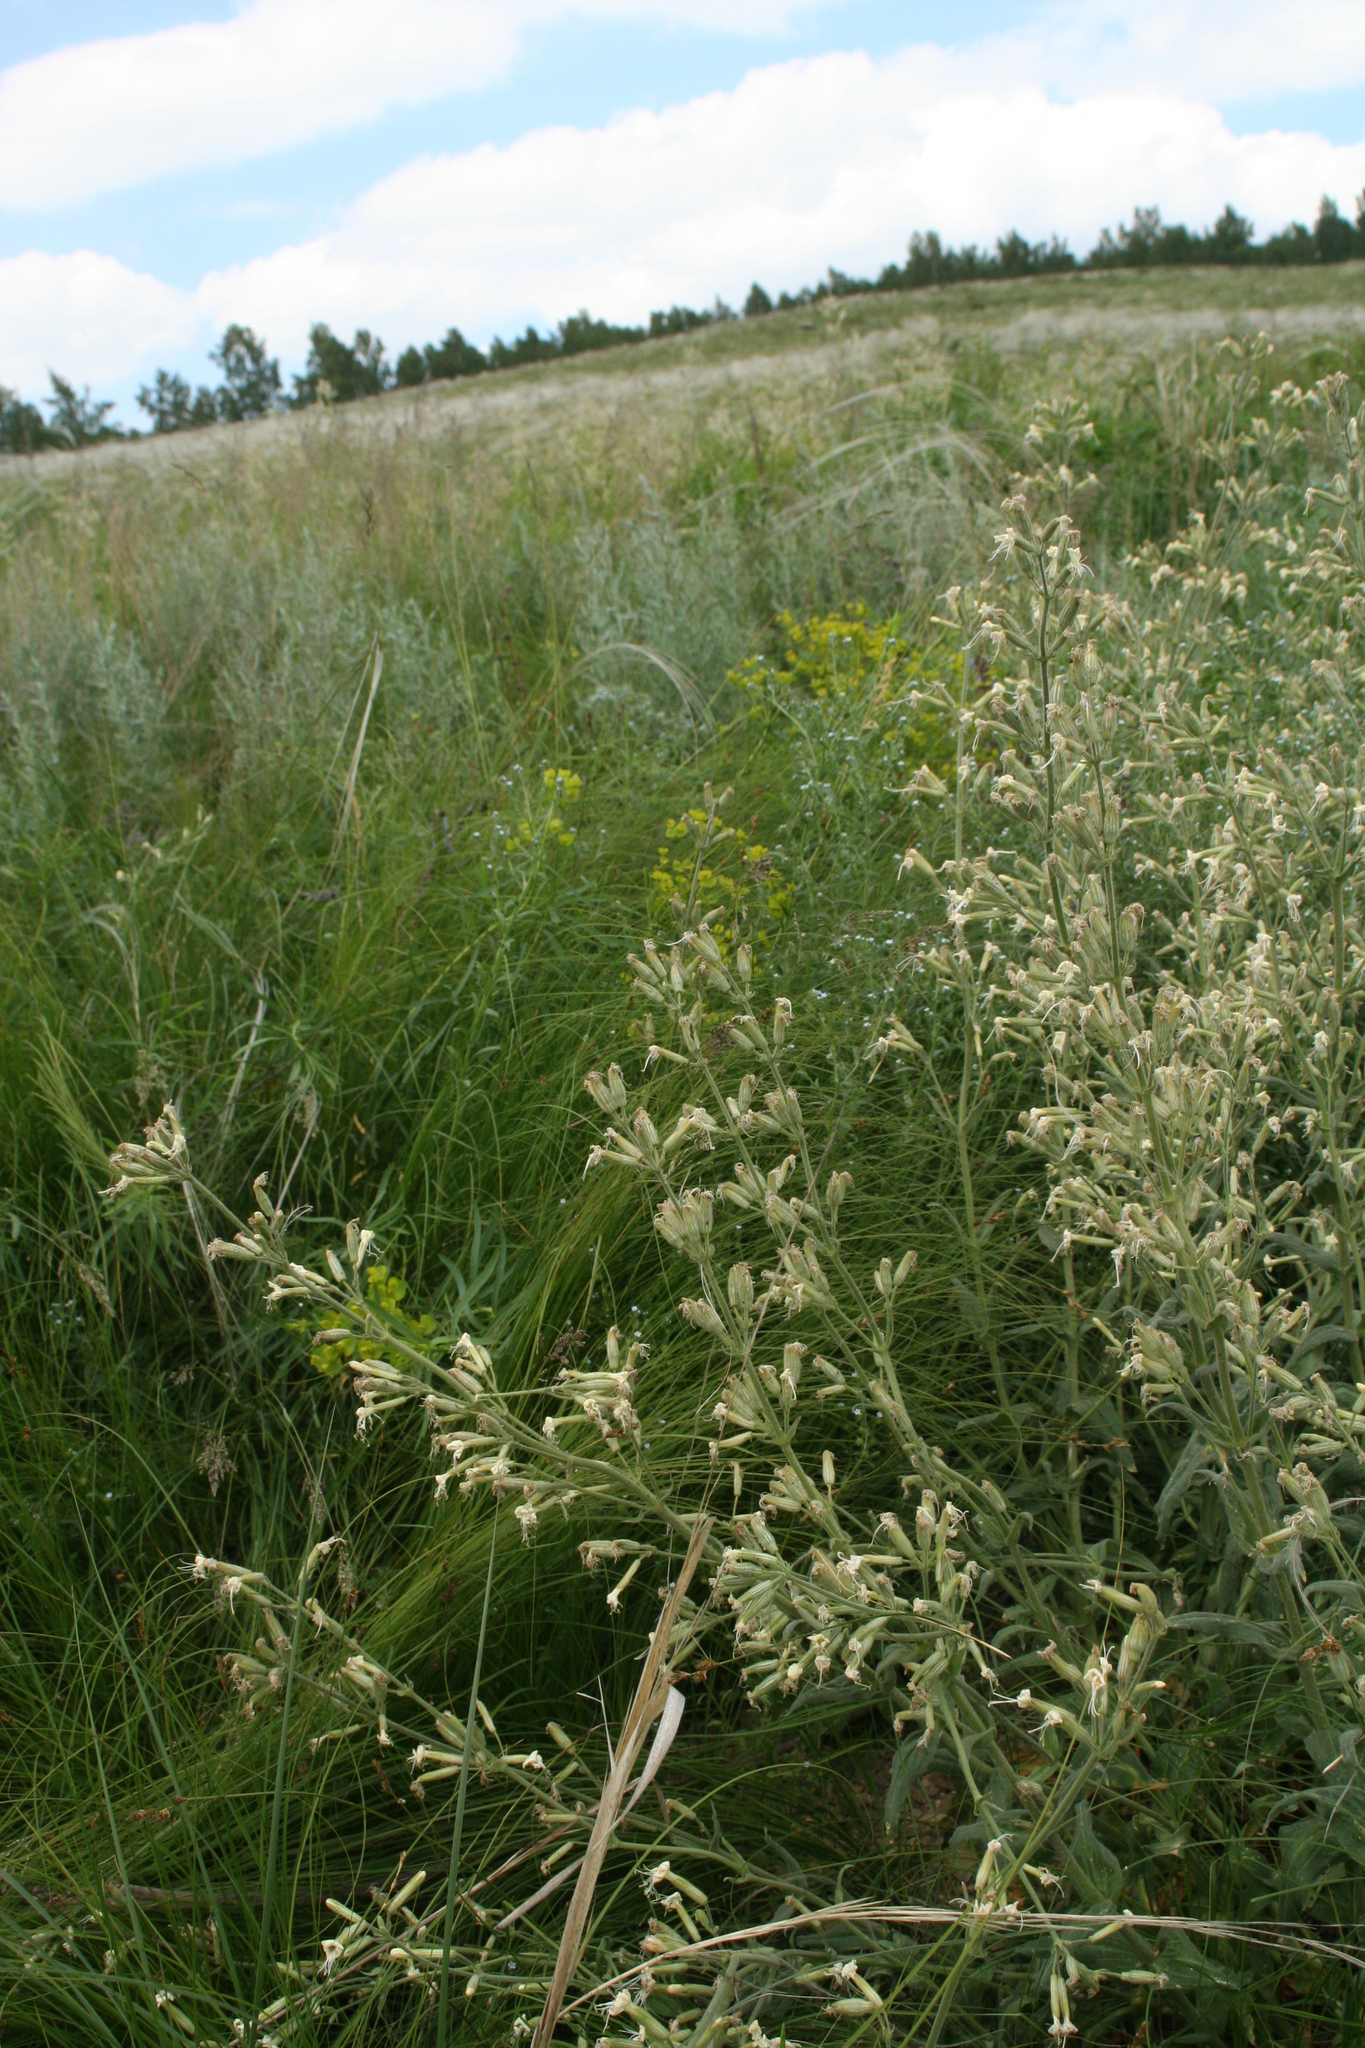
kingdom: Plantae
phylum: Tracheophyta
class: Magnoliopsida
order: Caryophyllales
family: Caryophyllaceae
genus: Silene
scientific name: Silene viscosa
